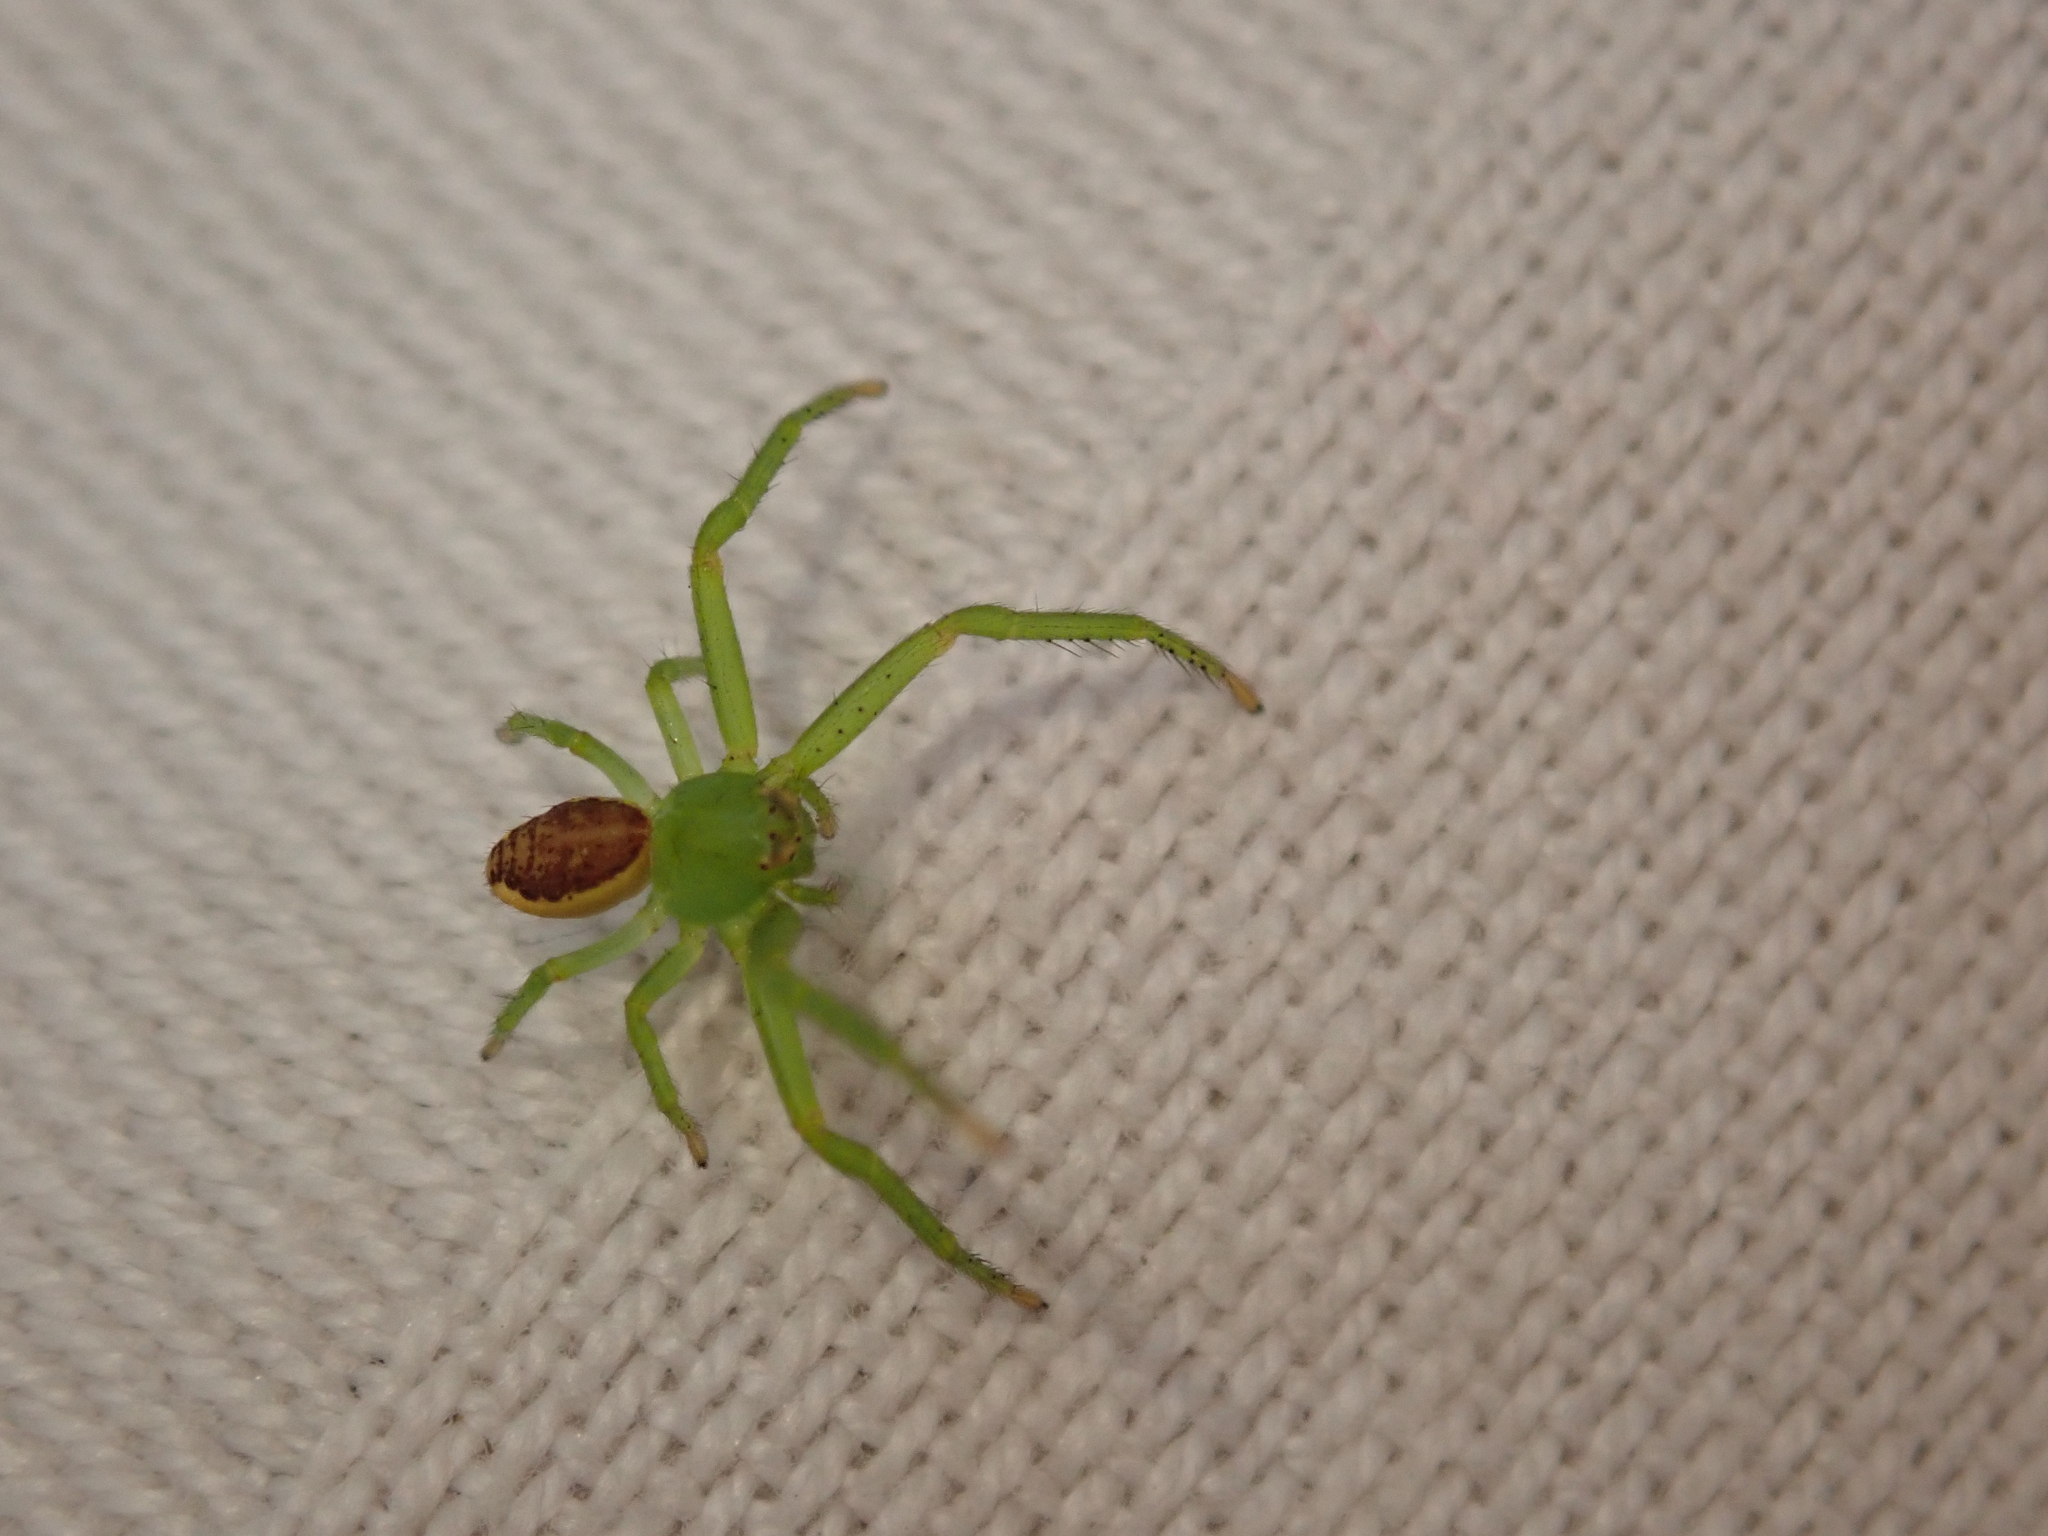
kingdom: Animalia
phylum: Arthropoda
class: Arachnida
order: Araneae
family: Thomisidae
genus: Diaea
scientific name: Diaea dorsata
